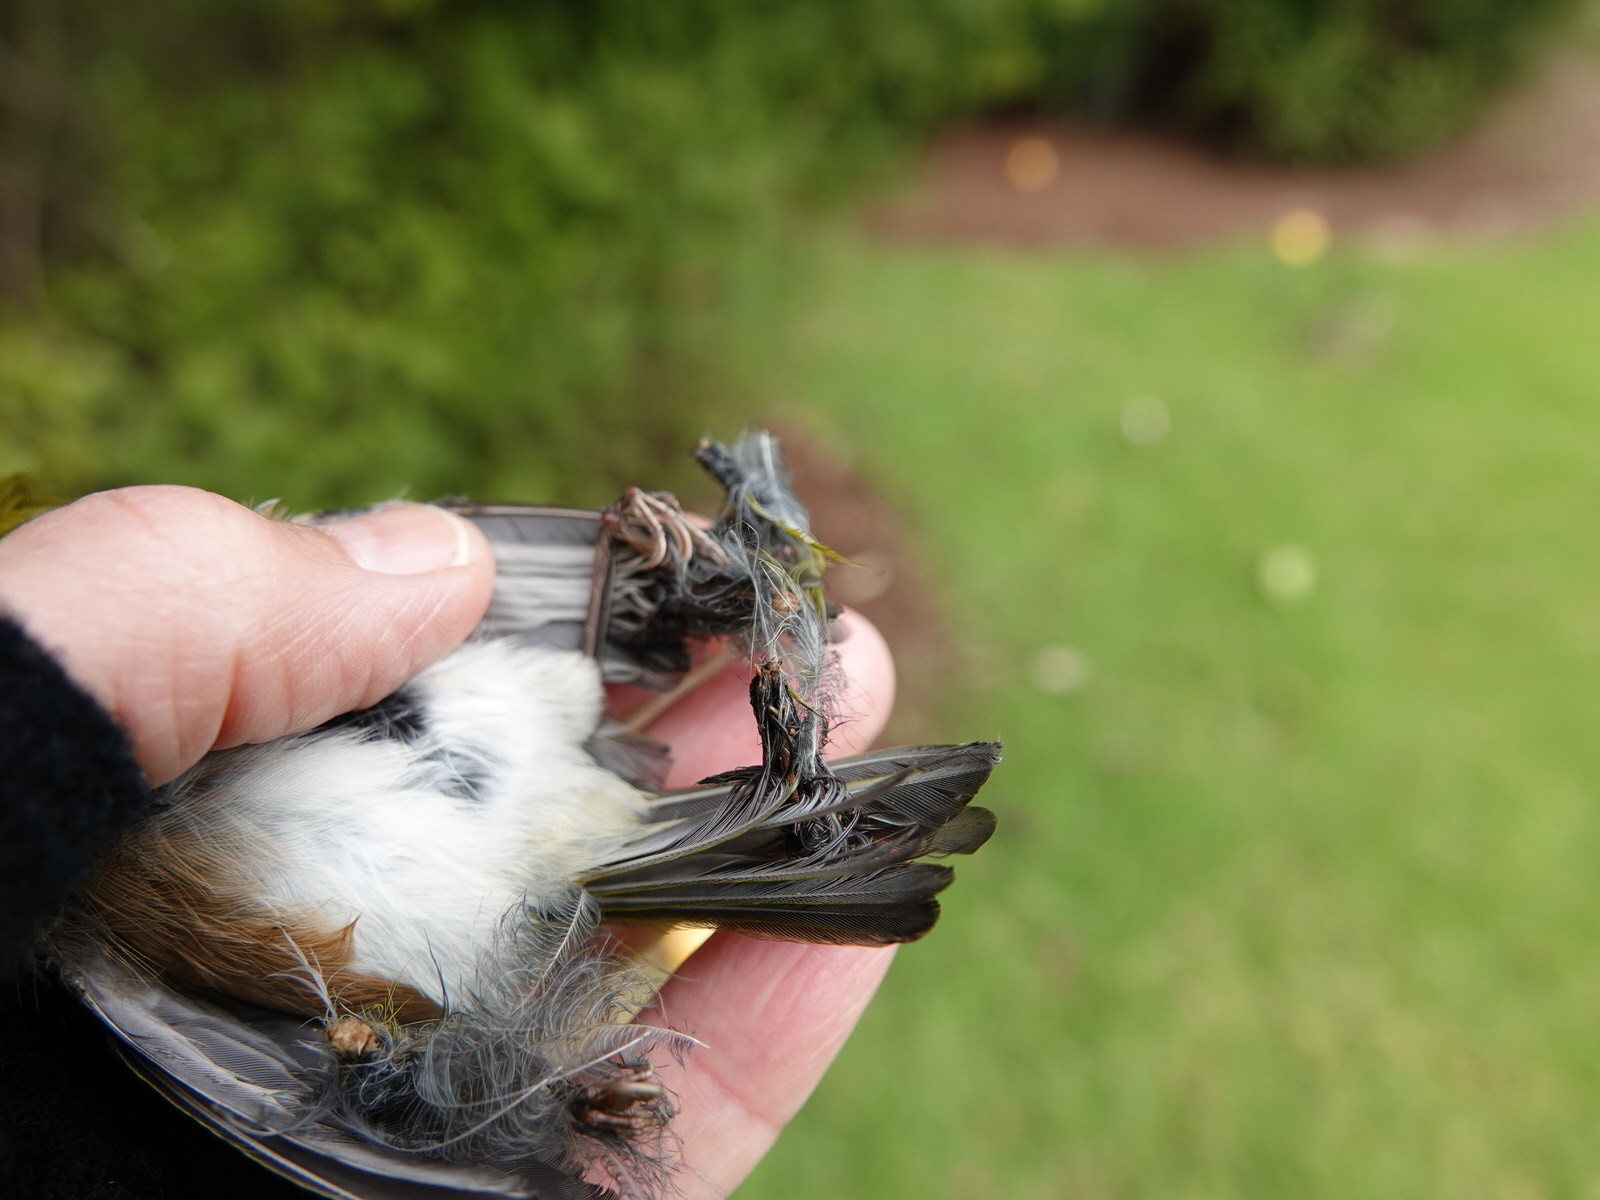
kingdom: Animalia
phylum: Chordata
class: Aves
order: Passeriformes
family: Zosteropidae
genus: Zosterops
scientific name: Zosterops lateralis
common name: Silvereye
